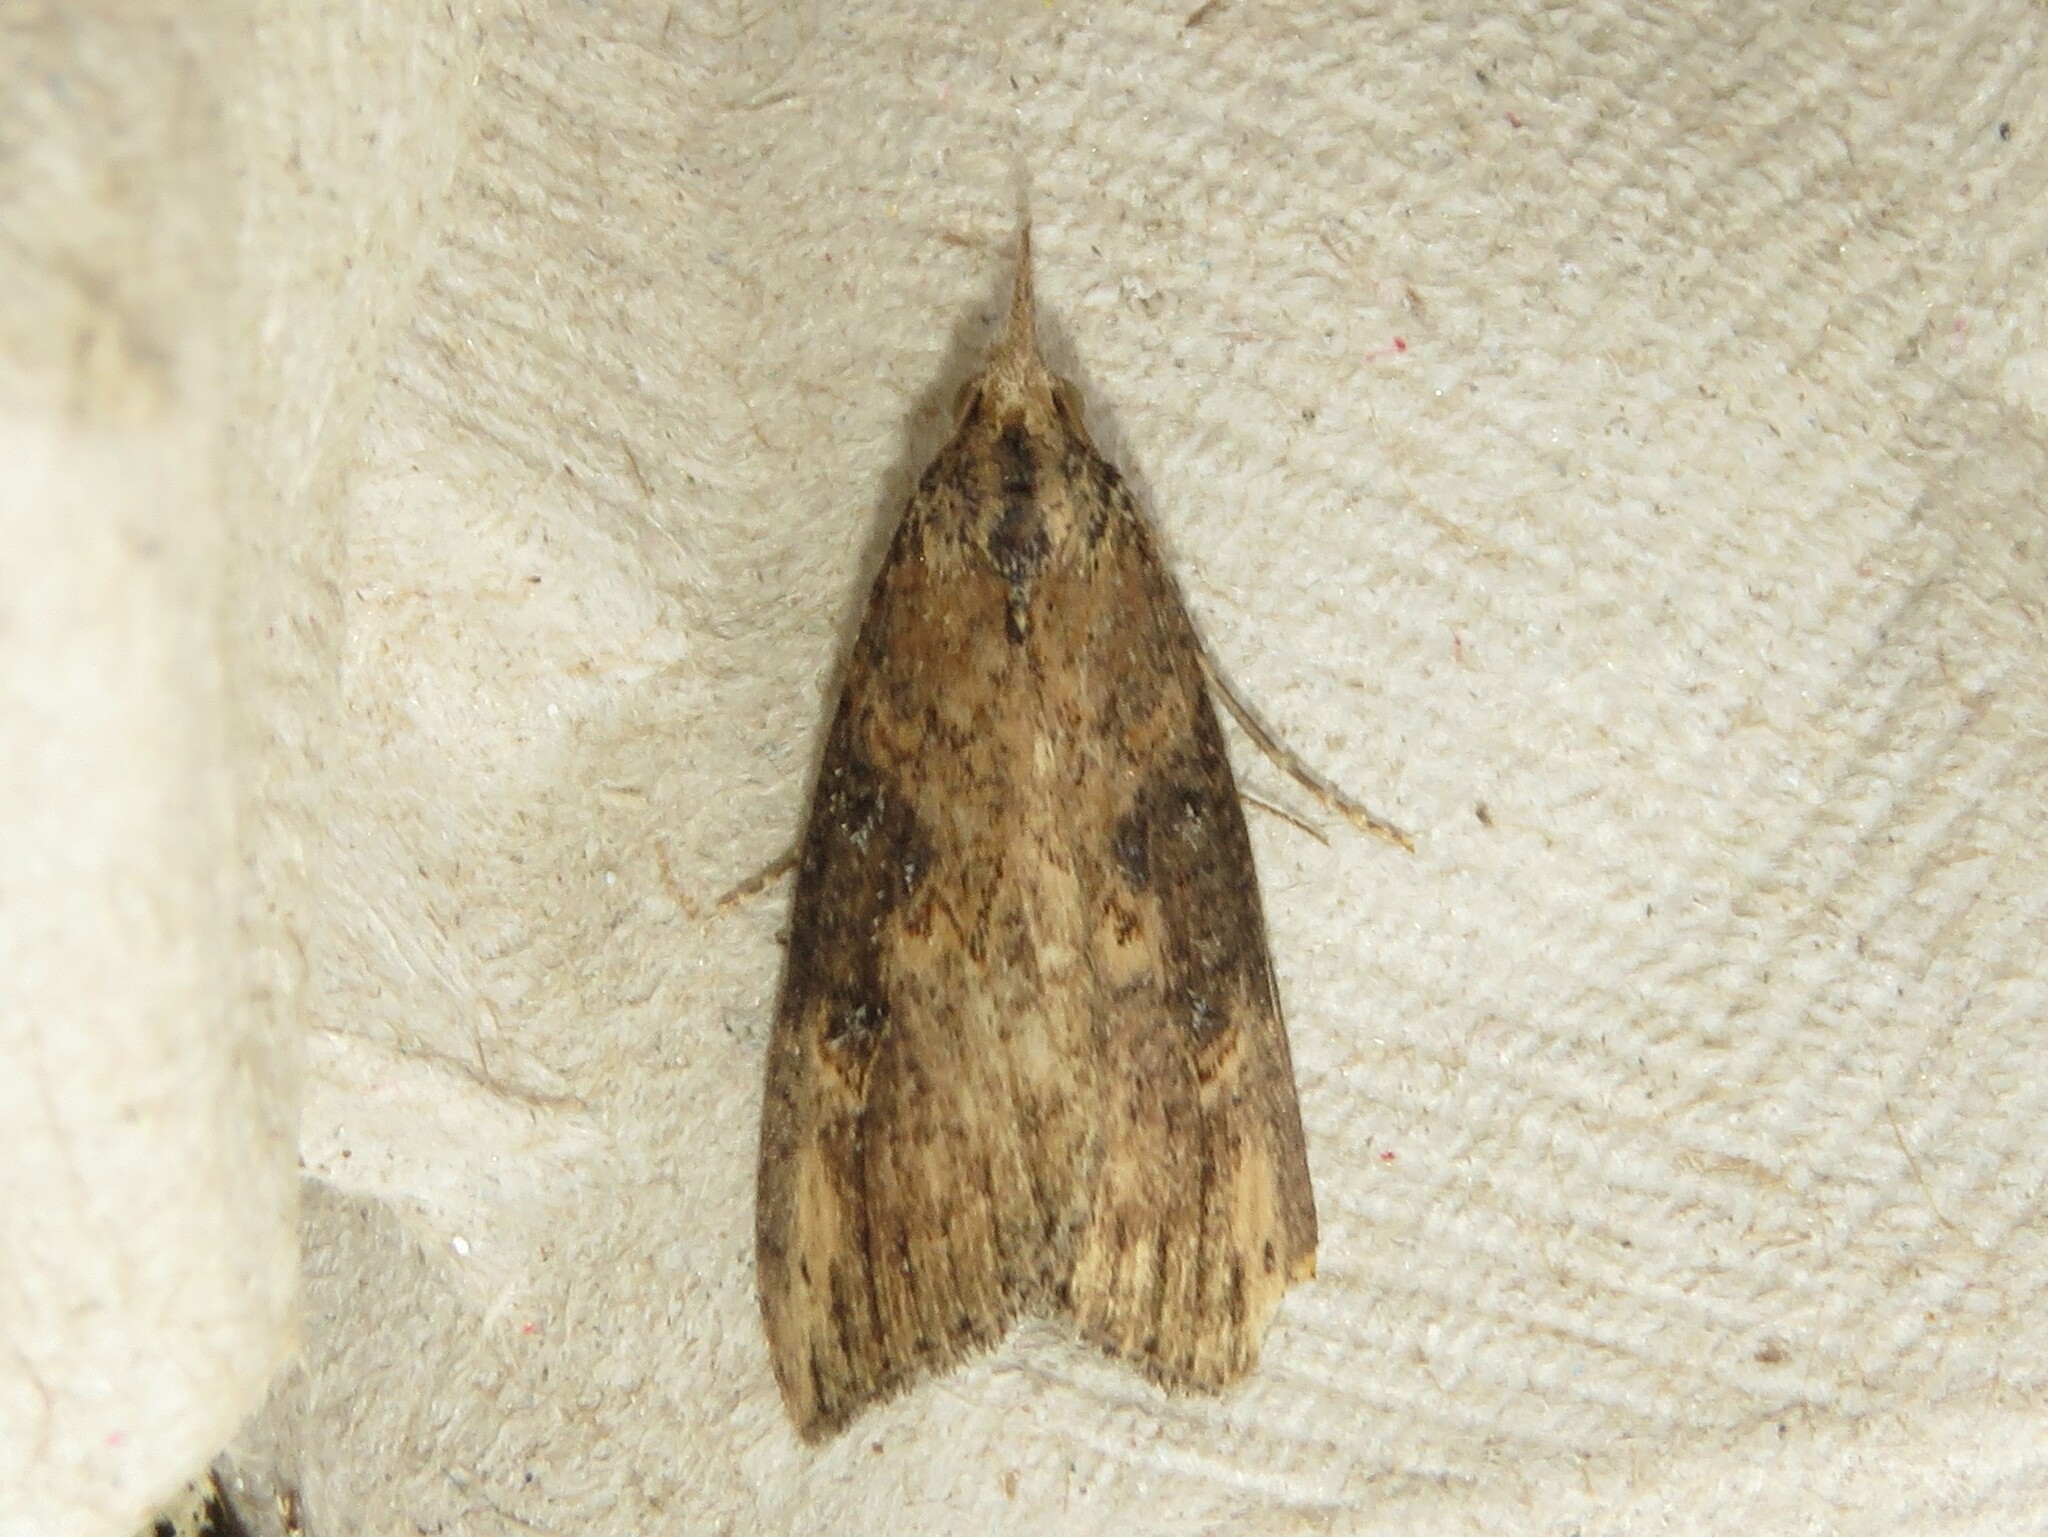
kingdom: Animalia
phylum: Arthropoda
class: Insecta
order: Lepidoptera
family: Erebidae
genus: Hypena
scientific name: Hypena humuli
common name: Hop vine snout
